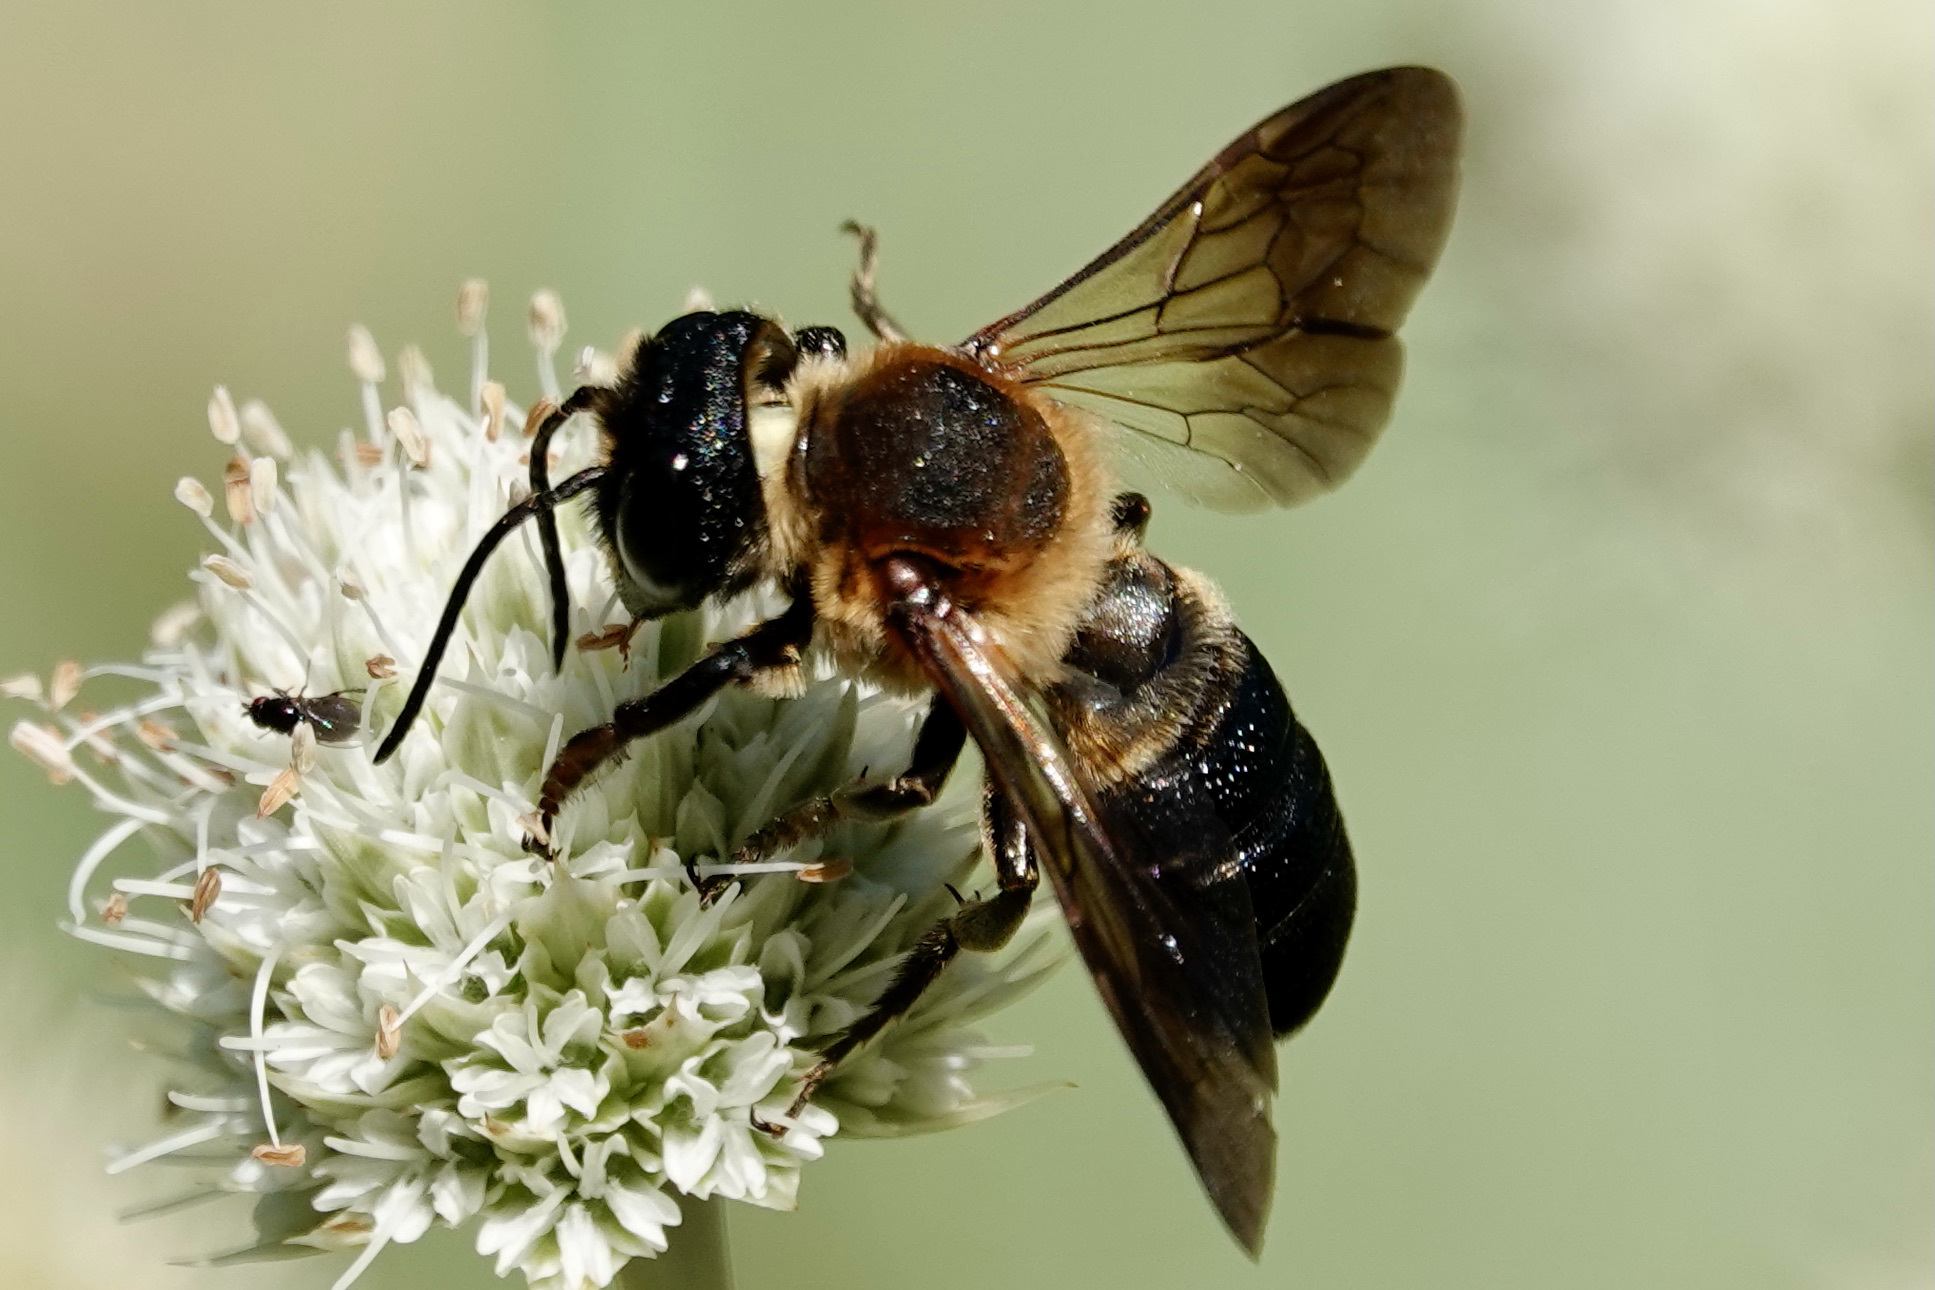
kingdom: Animalia
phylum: Arthropoda
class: Insecta
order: Hymenoptera
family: Megachilidae
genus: Megachile
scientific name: Megachile sculpturalis
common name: Sculptured resin bee
